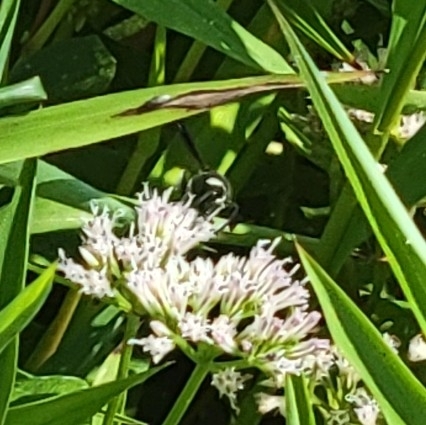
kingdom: Animalia
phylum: Arthropoda
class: Insecta
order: Hymenoptera
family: Vespidae
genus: Eumenes
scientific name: Eumenes fraternus
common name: Fraternal potter wasp
